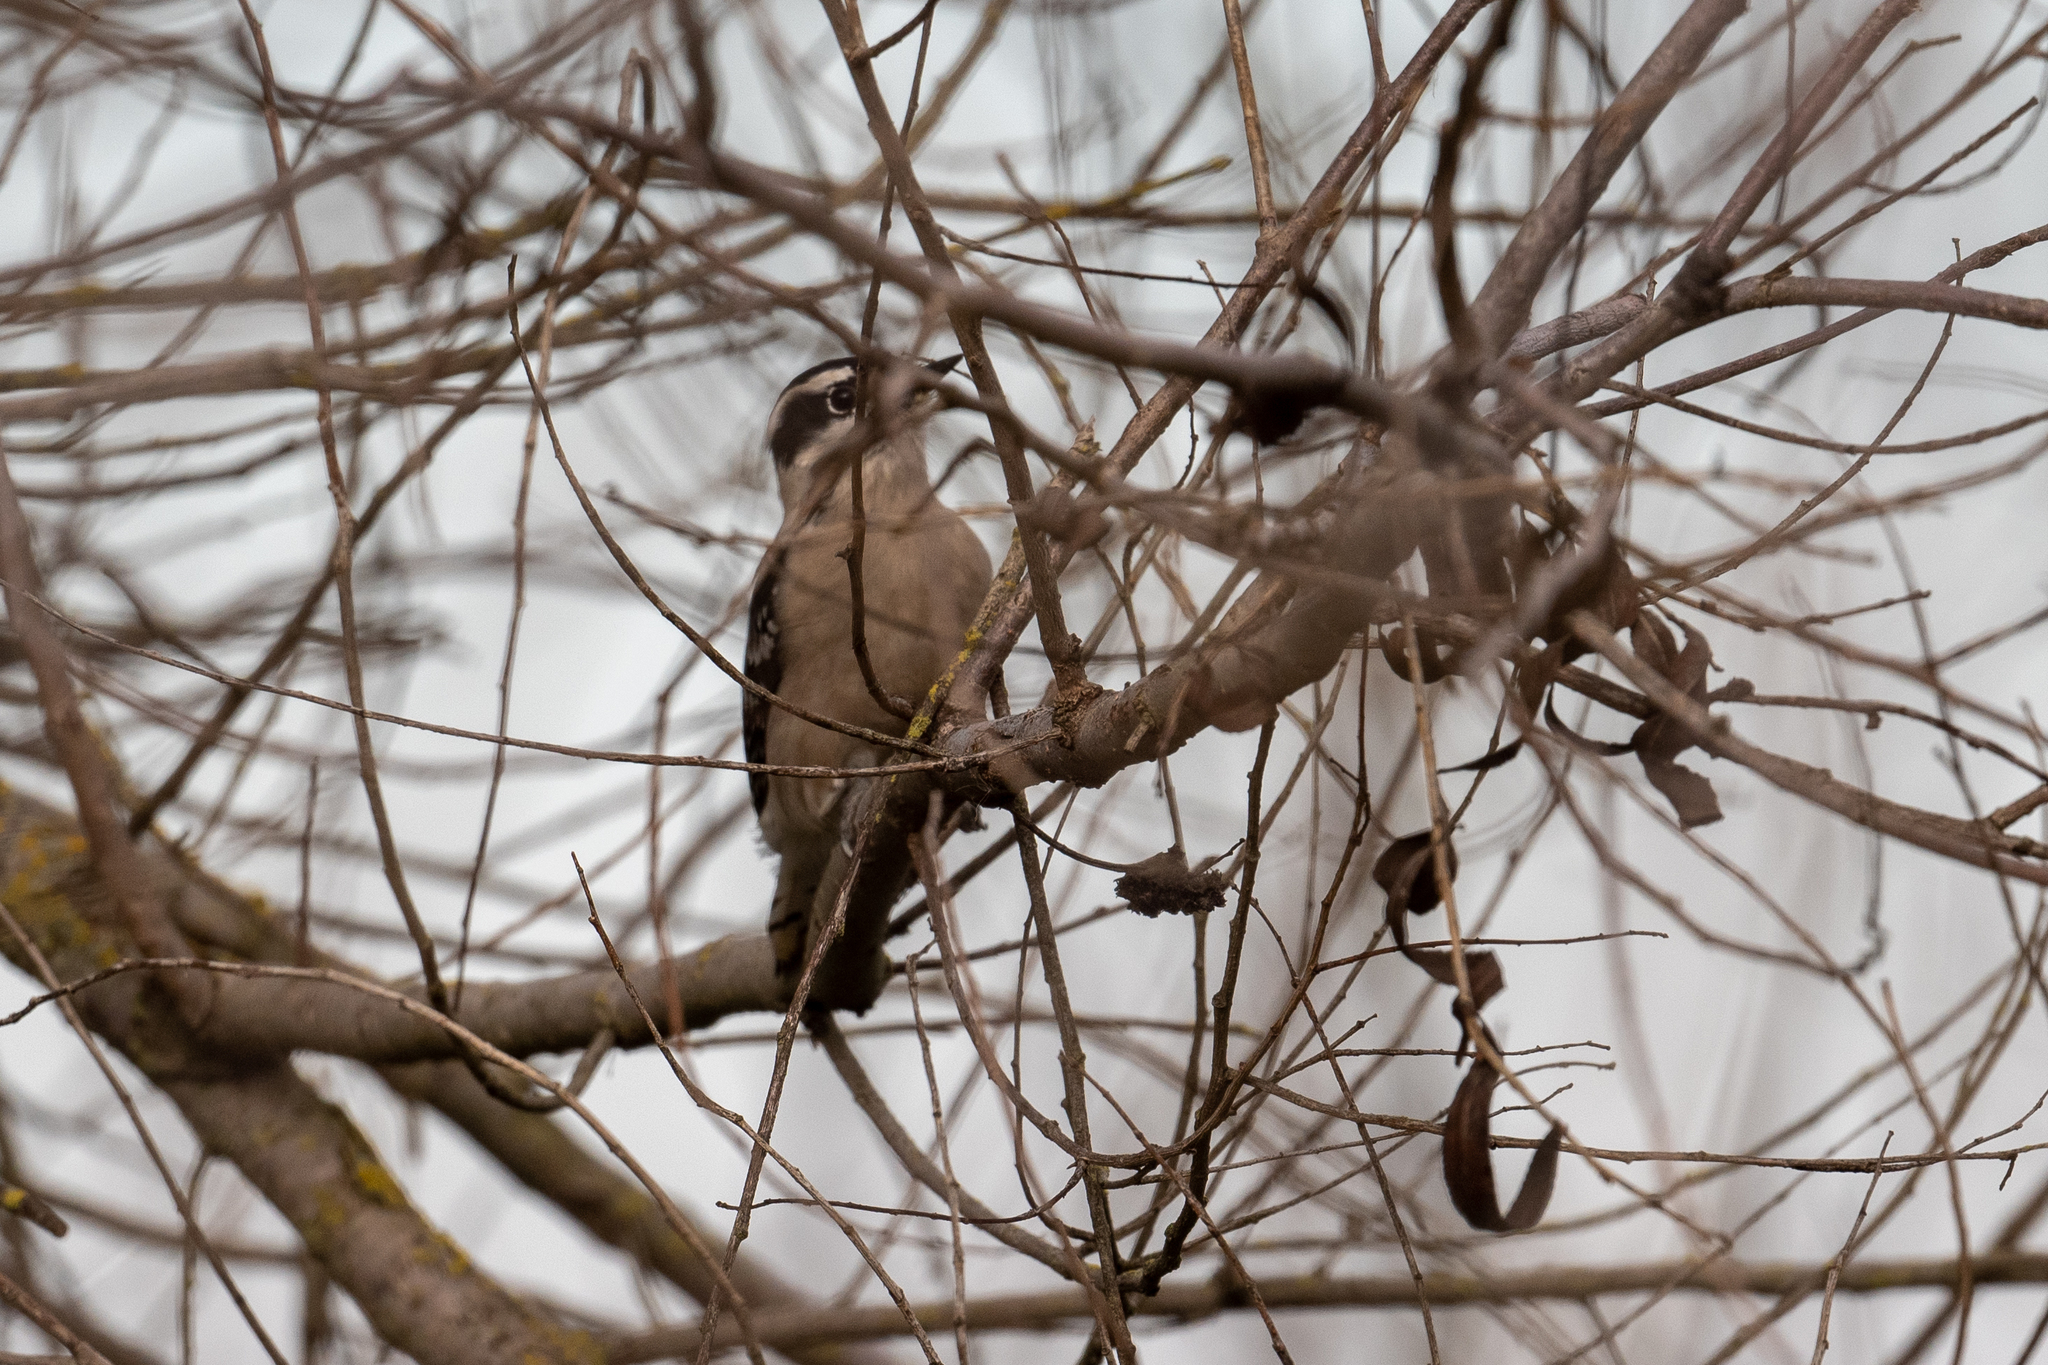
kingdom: Animalia
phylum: Chordata
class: Aves
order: Piciformes
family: Picidae
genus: Dryobates
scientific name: Dryobates pubescens
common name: Downy woodpecker
